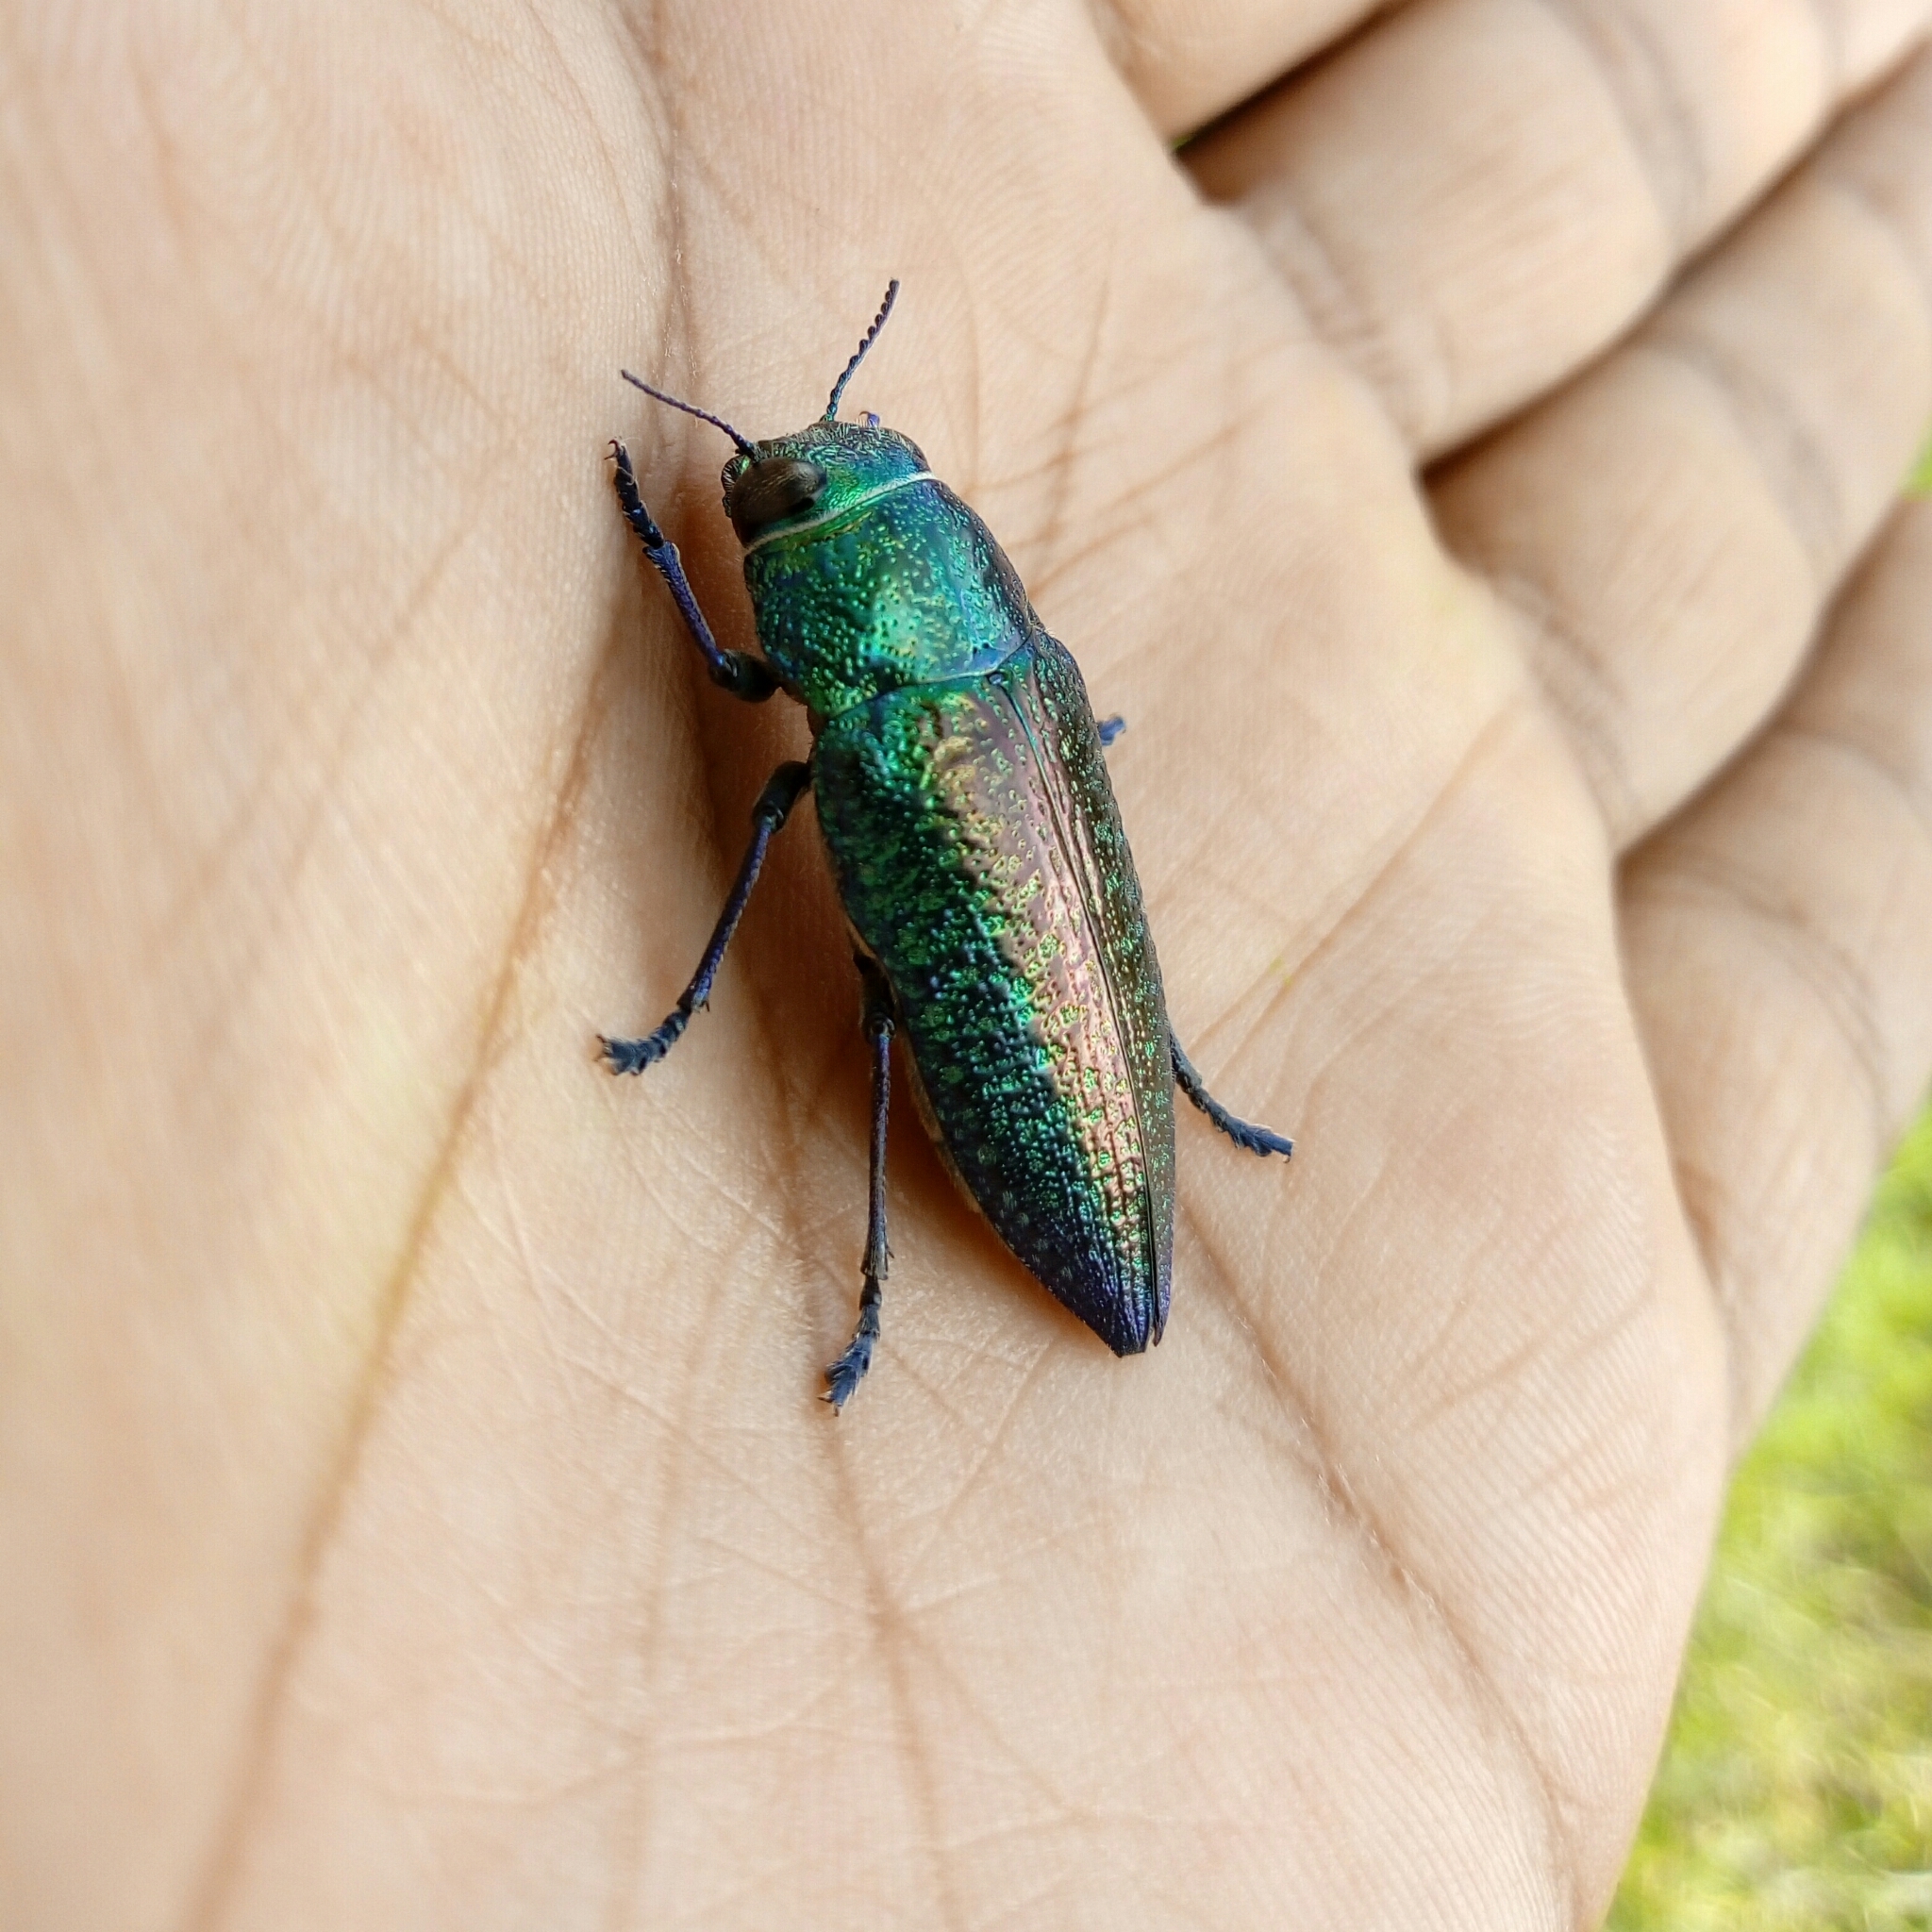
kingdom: Animalia
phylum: Arthropoda
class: Insecta
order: Coleoptera
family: Buprestidae
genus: Lampetis
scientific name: Lampetis chalconota
